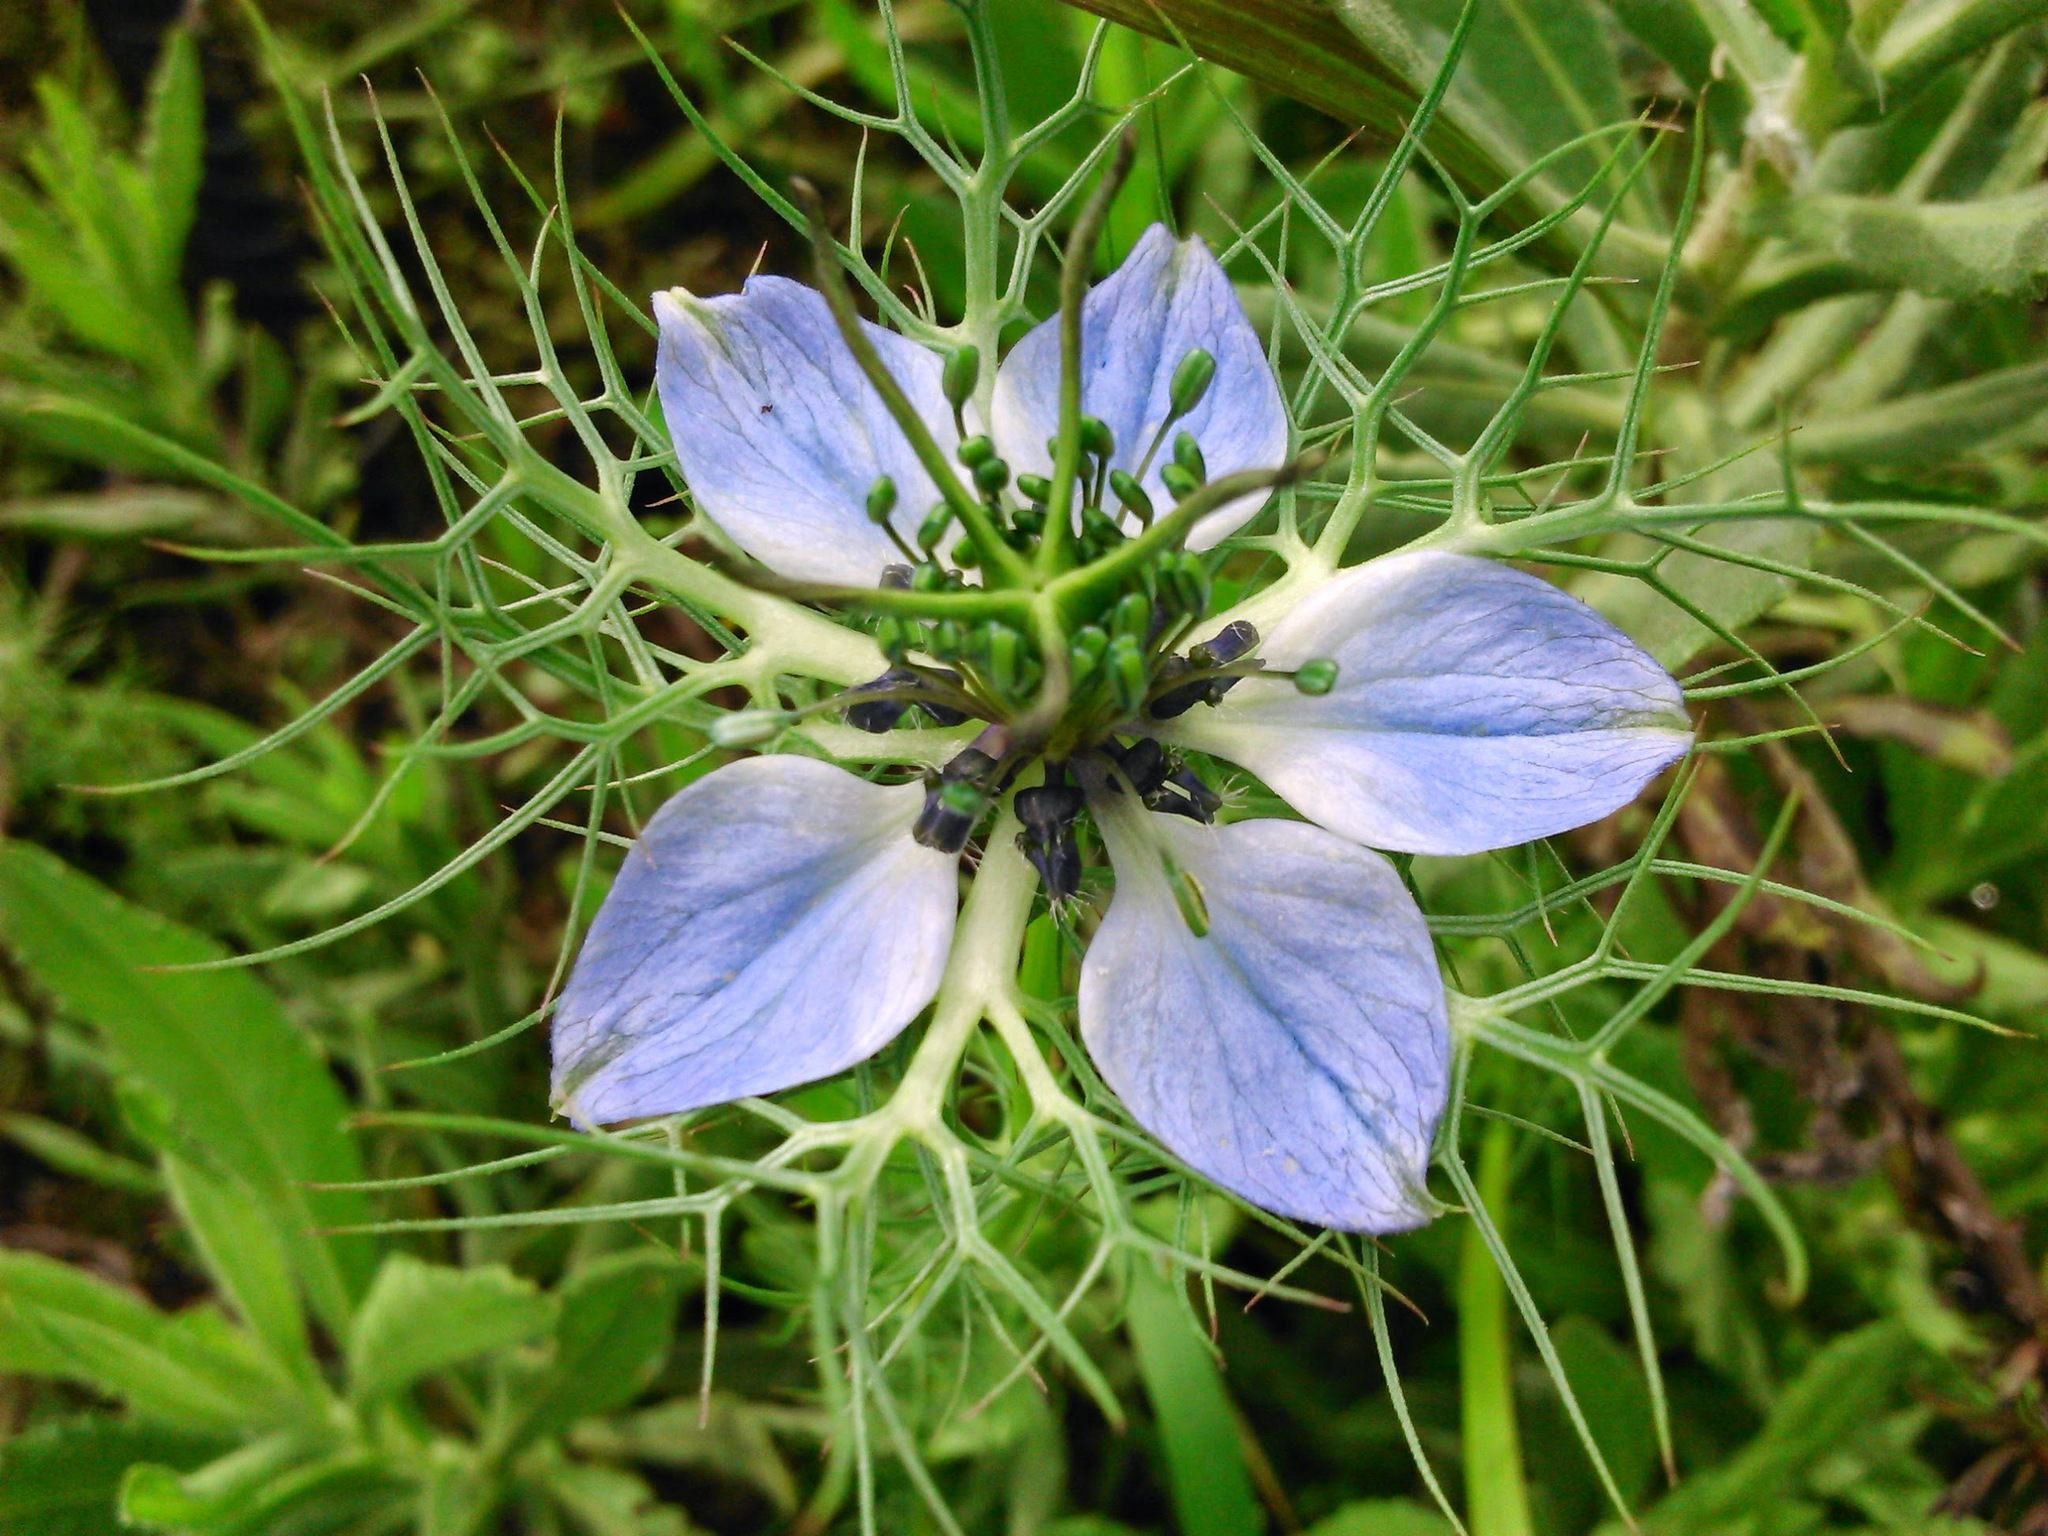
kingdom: Plantae
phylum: Tracheophyta
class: Magnoliopsida
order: Ranunculales
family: Ranunculaceae
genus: Nigella
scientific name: Nigella damascena
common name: Love-in-a-mist
